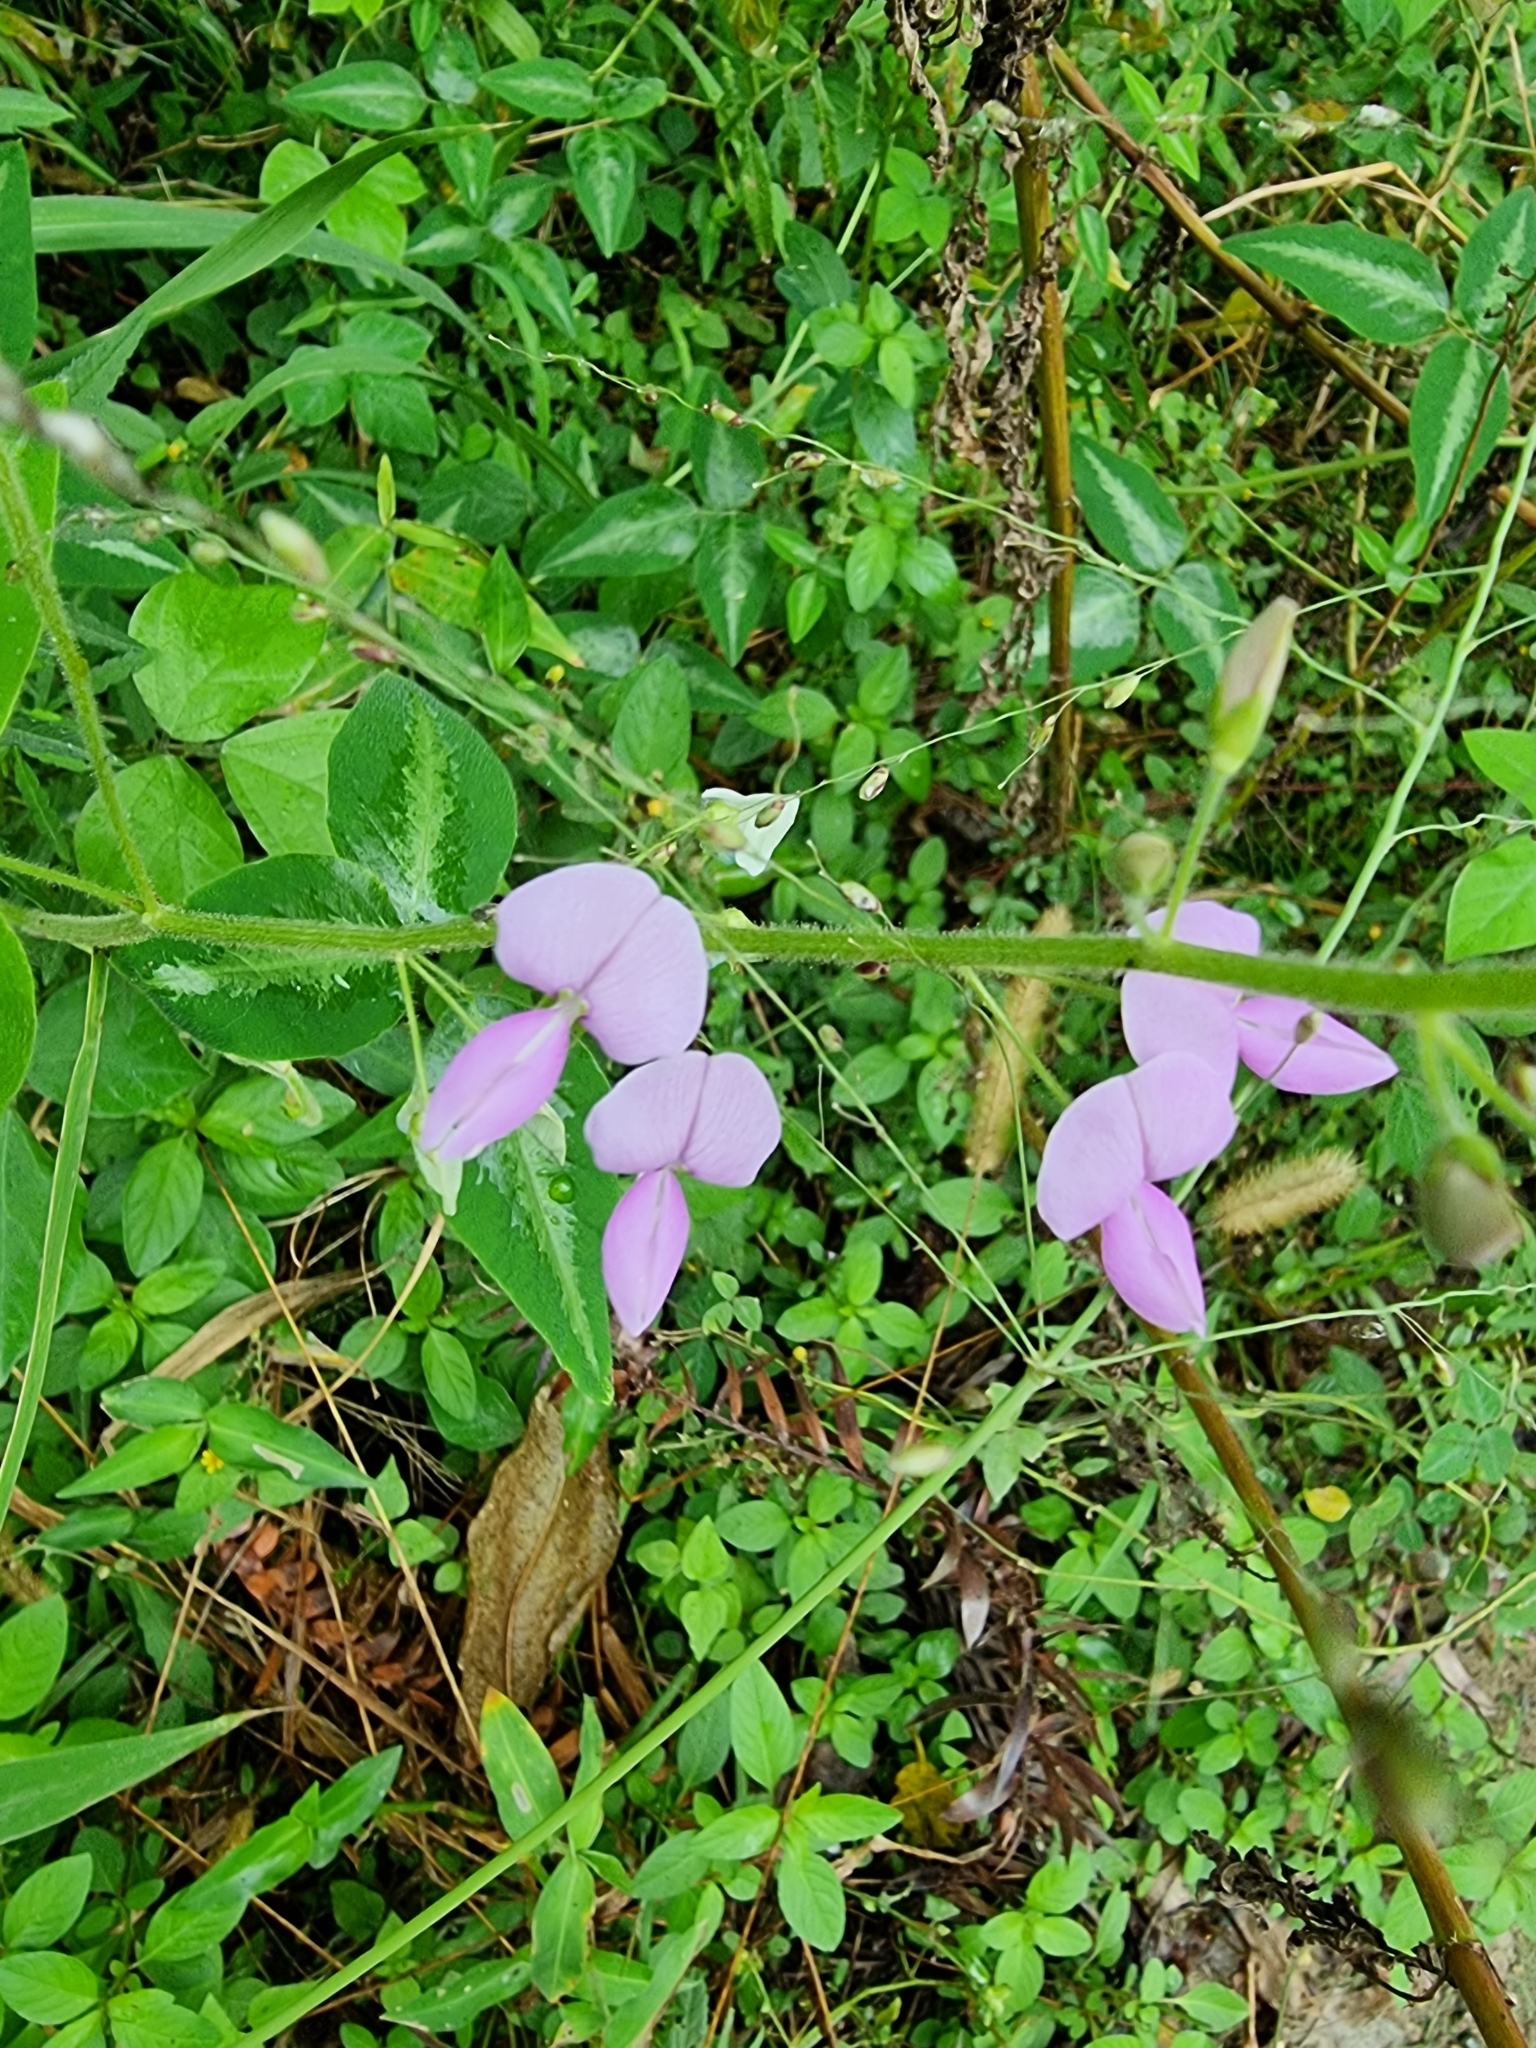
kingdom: Plantae
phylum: Tracheophyta
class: Magnoliopsida
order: Fabales
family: Fabaceae
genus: Desmodium
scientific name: Desmodium uncinatum
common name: Silverleaf desmodium
